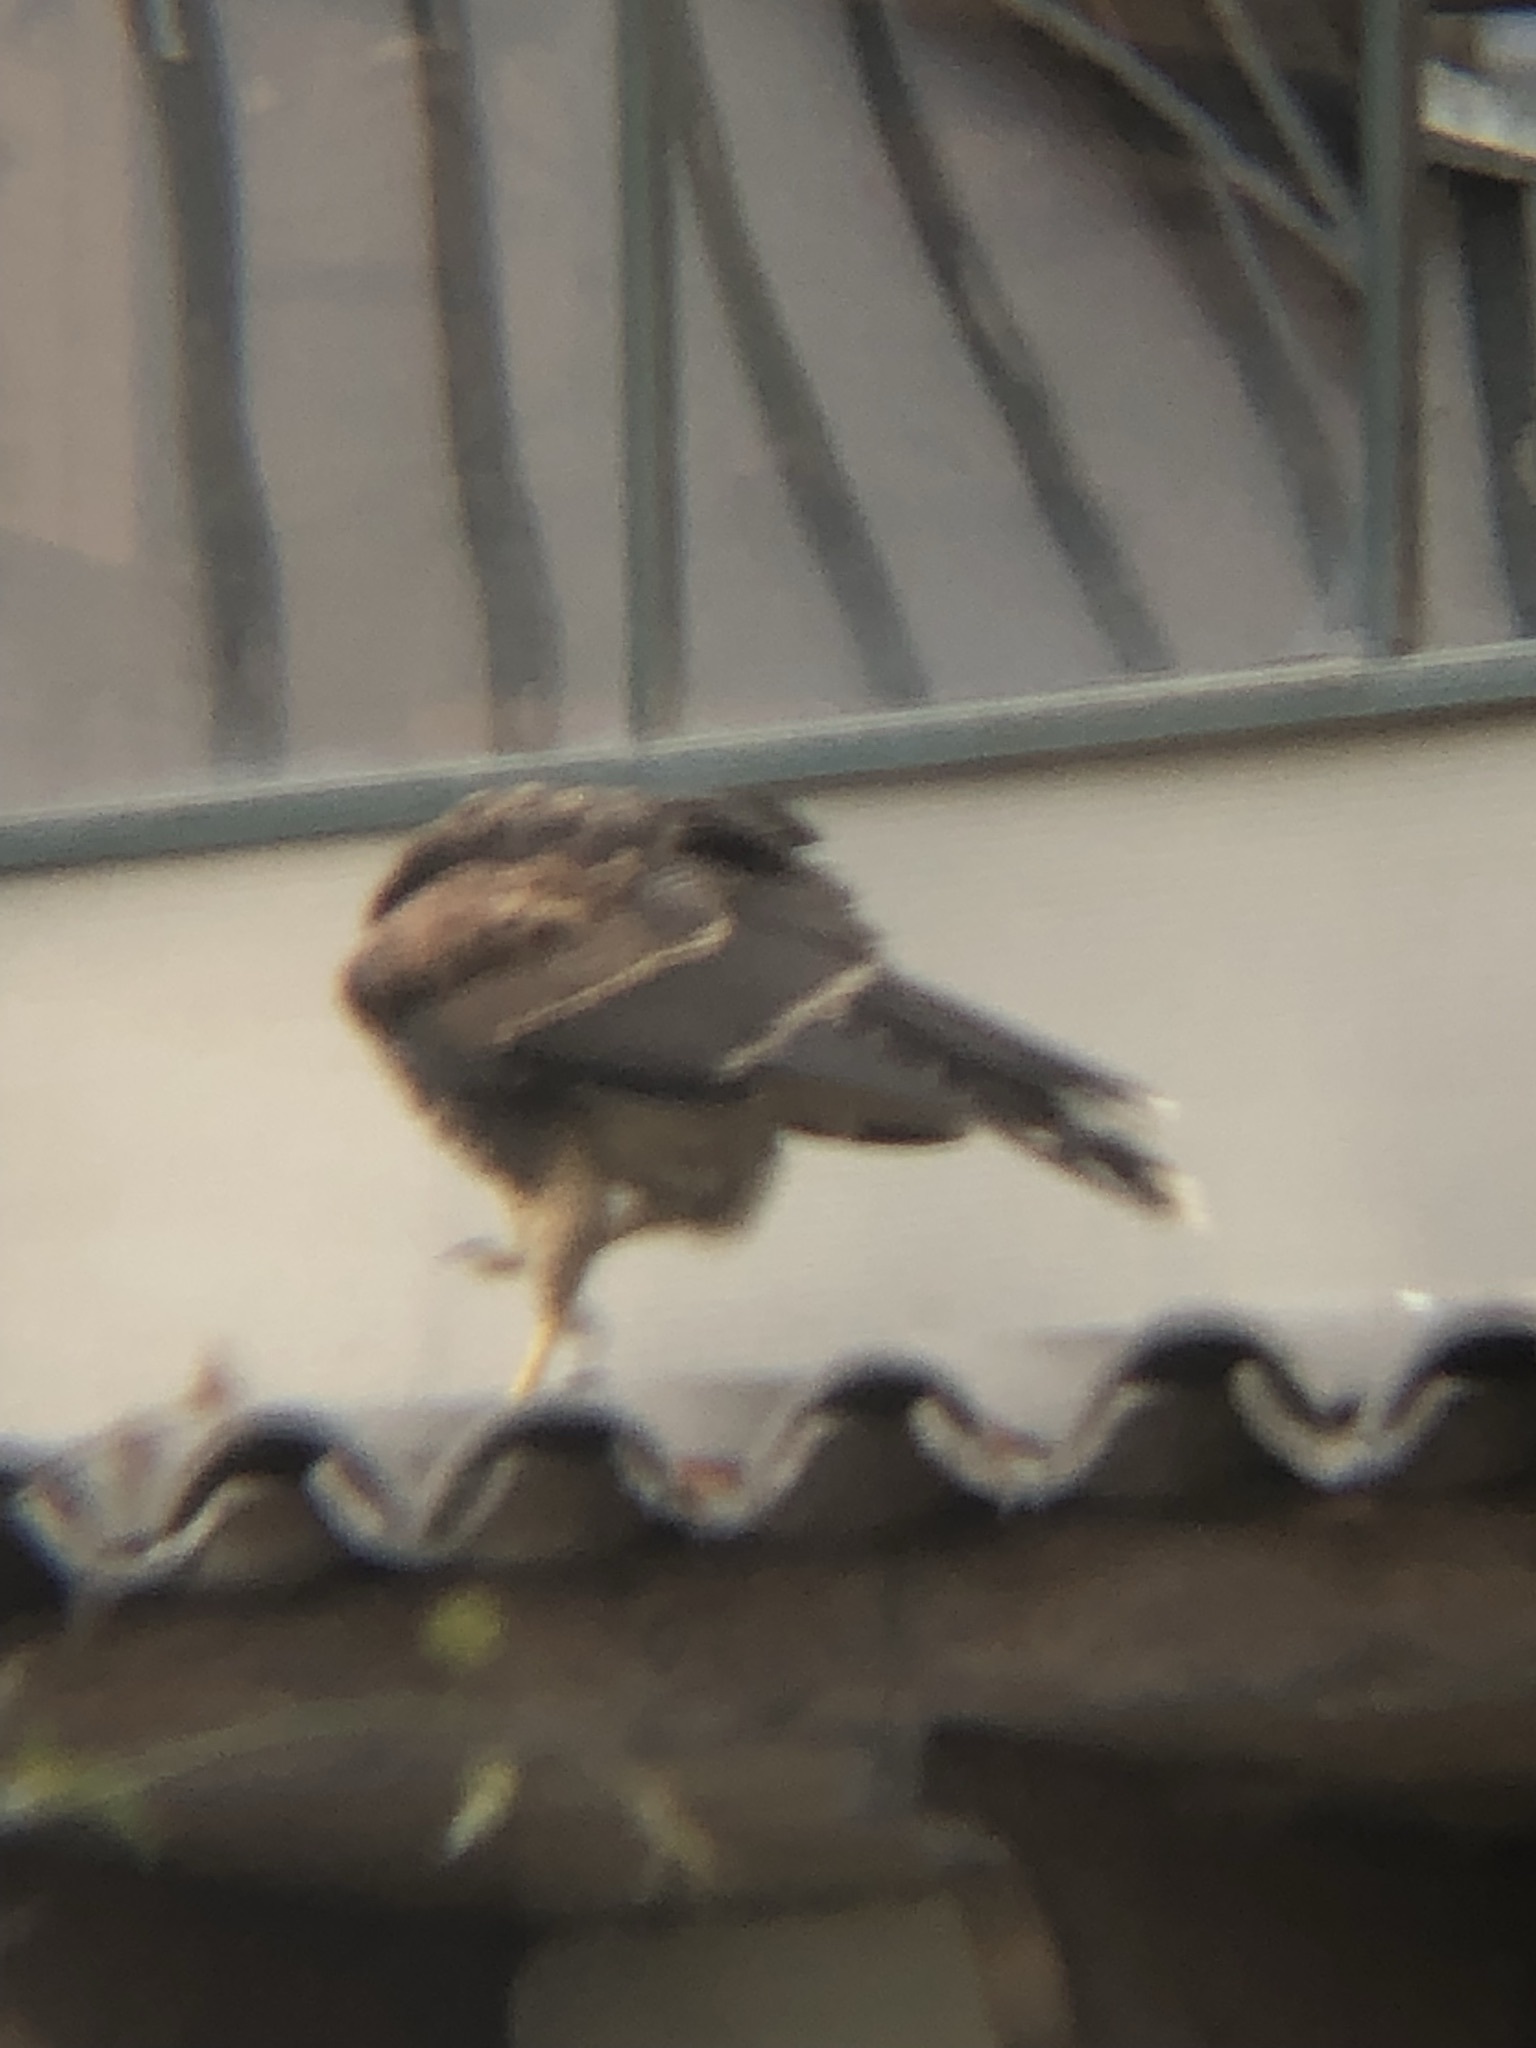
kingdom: Animalia
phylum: Chordata
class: Aves
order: Accipitriformes
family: Accipitridae
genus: Parabuteo
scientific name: Parabuteo unicinctus
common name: Harris's hawk
